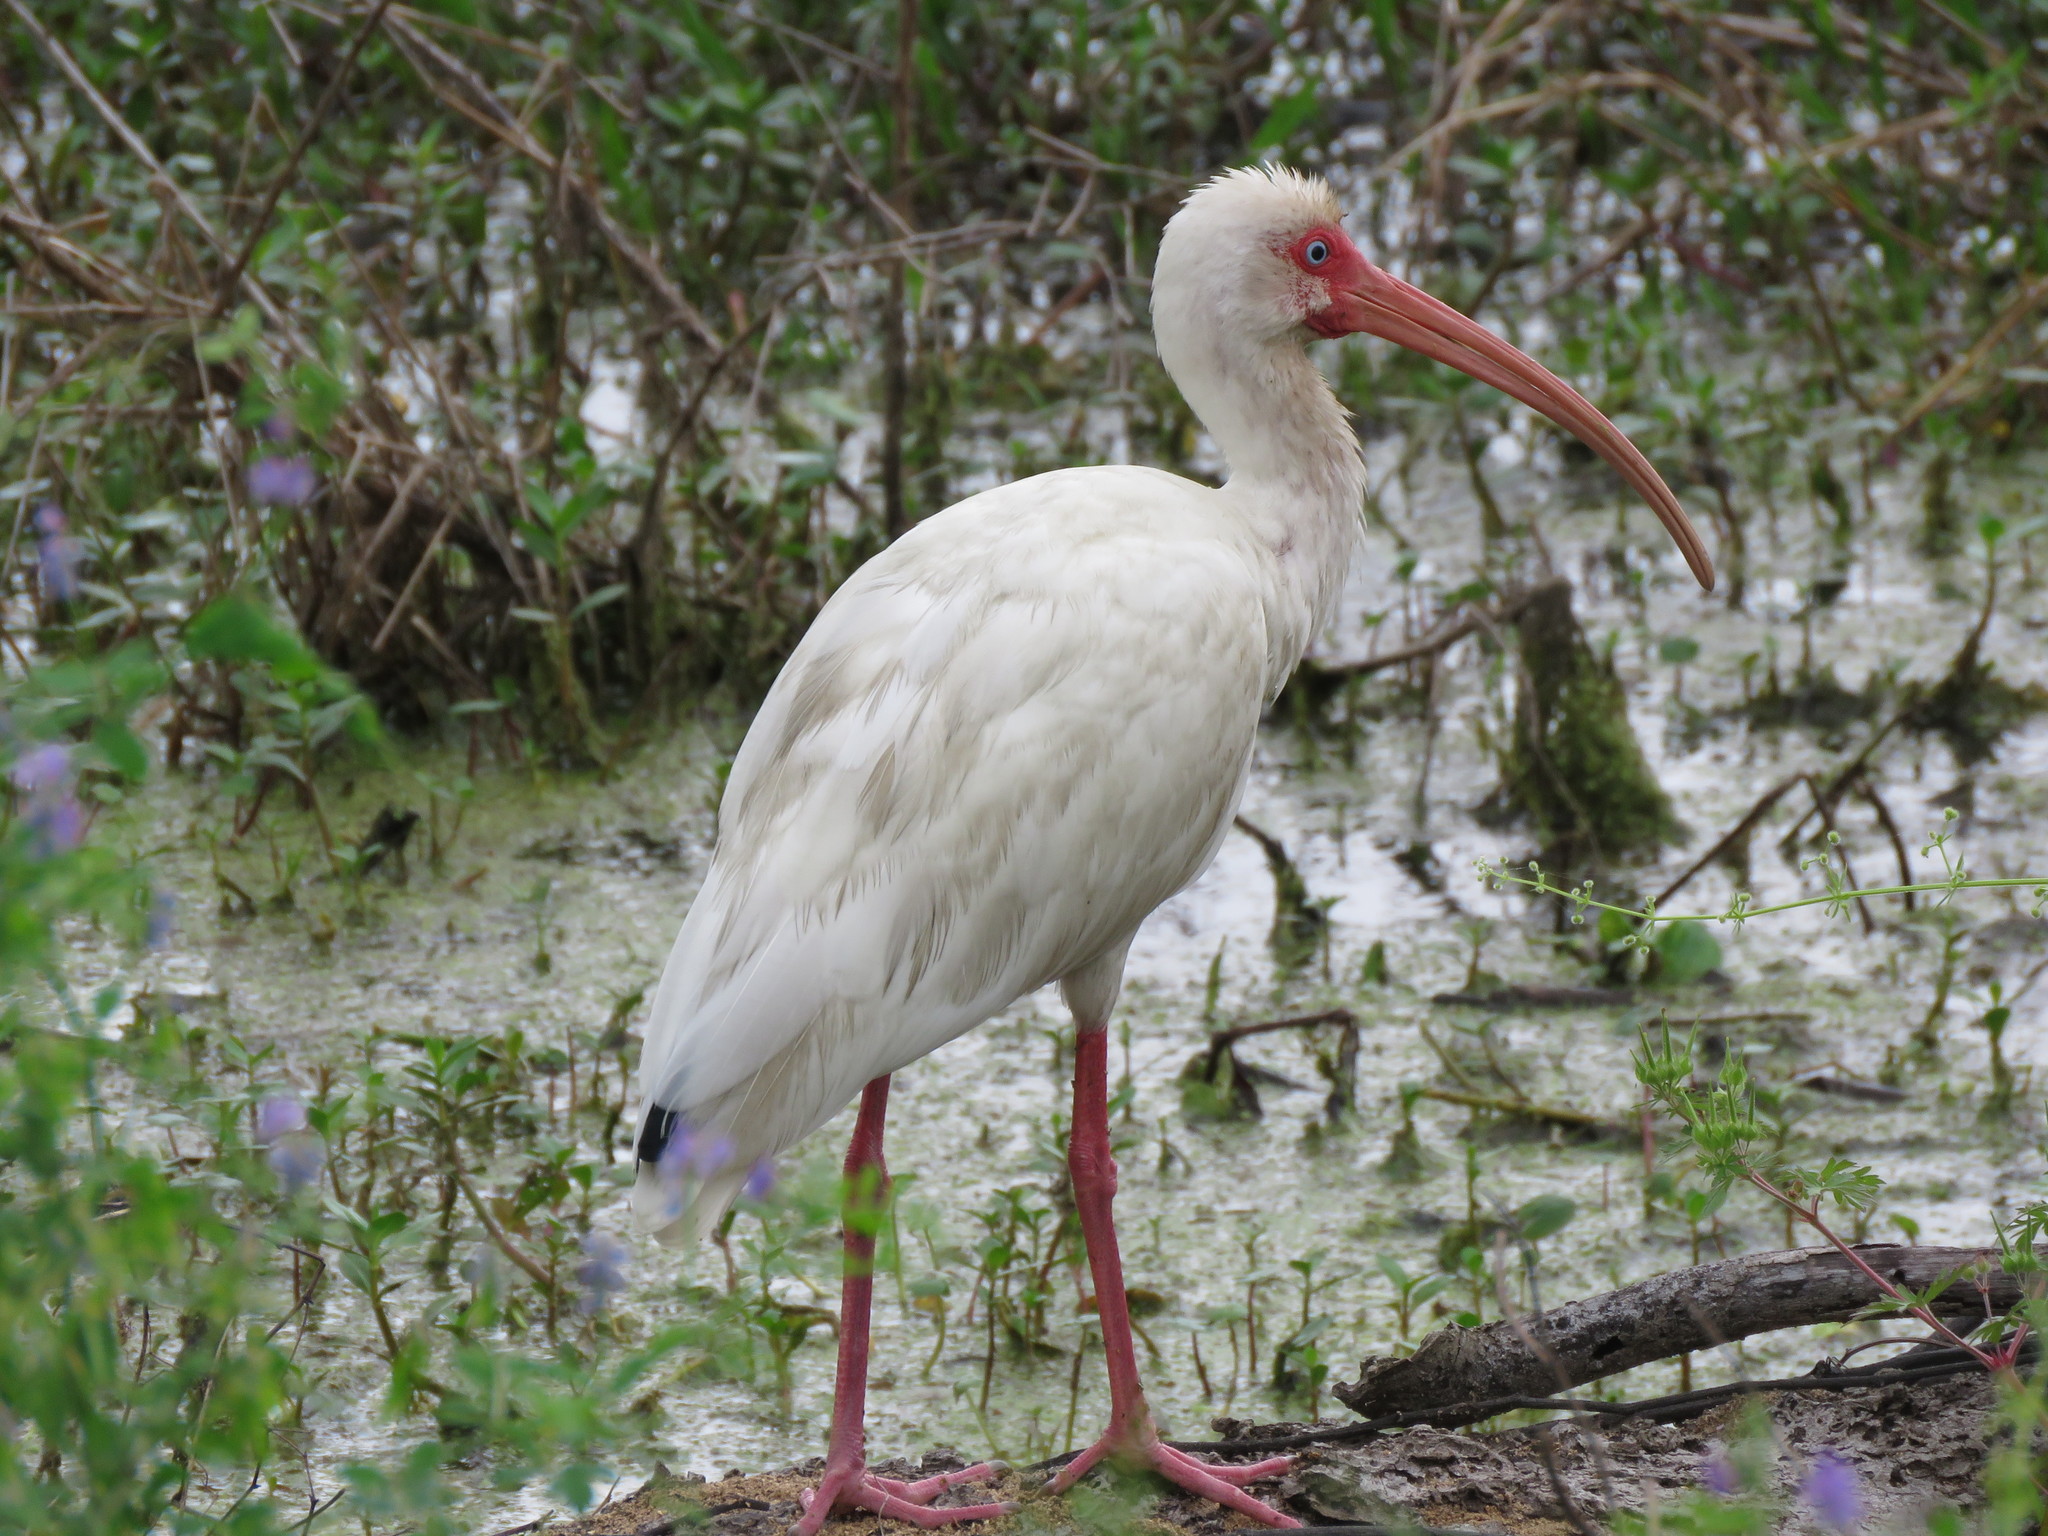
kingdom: Animalia
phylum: Chordata
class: Aves
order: Pelecaniformes
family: Threskiornithidae
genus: Eudocimus
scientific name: Eudocimus albus
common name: White ibis
